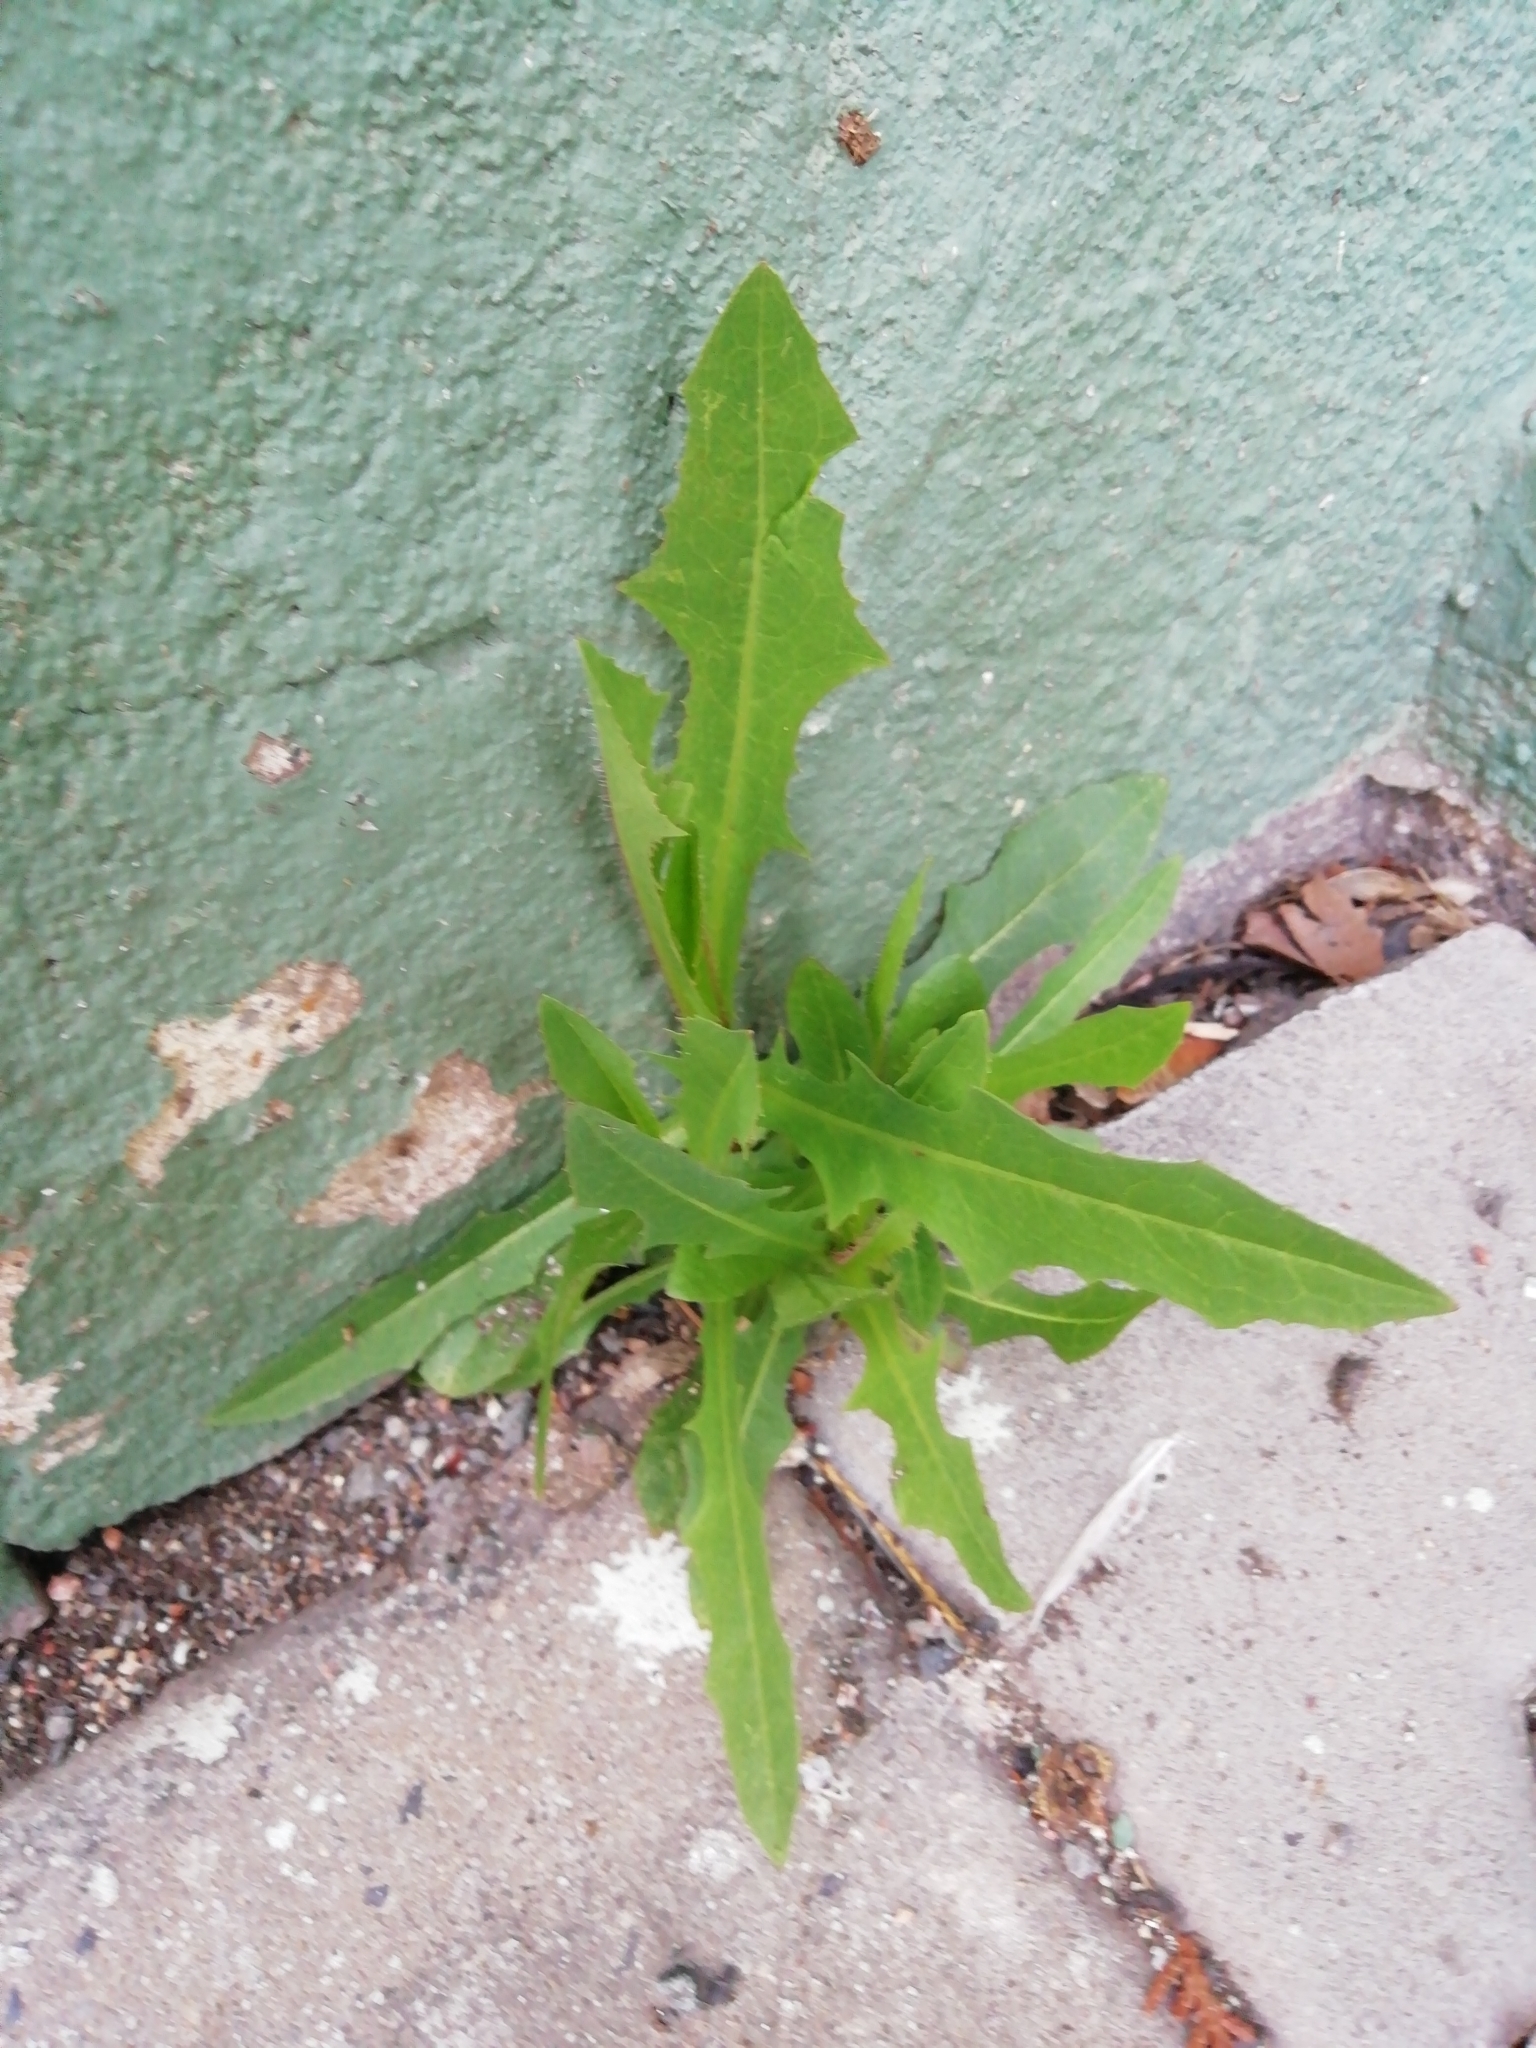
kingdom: Plantae
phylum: Tracheophyta
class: Magnoliopsida
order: Asterales
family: Asteraceae
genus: Lactuca
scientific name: Lactuca serriola
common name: Prickly lettuce
